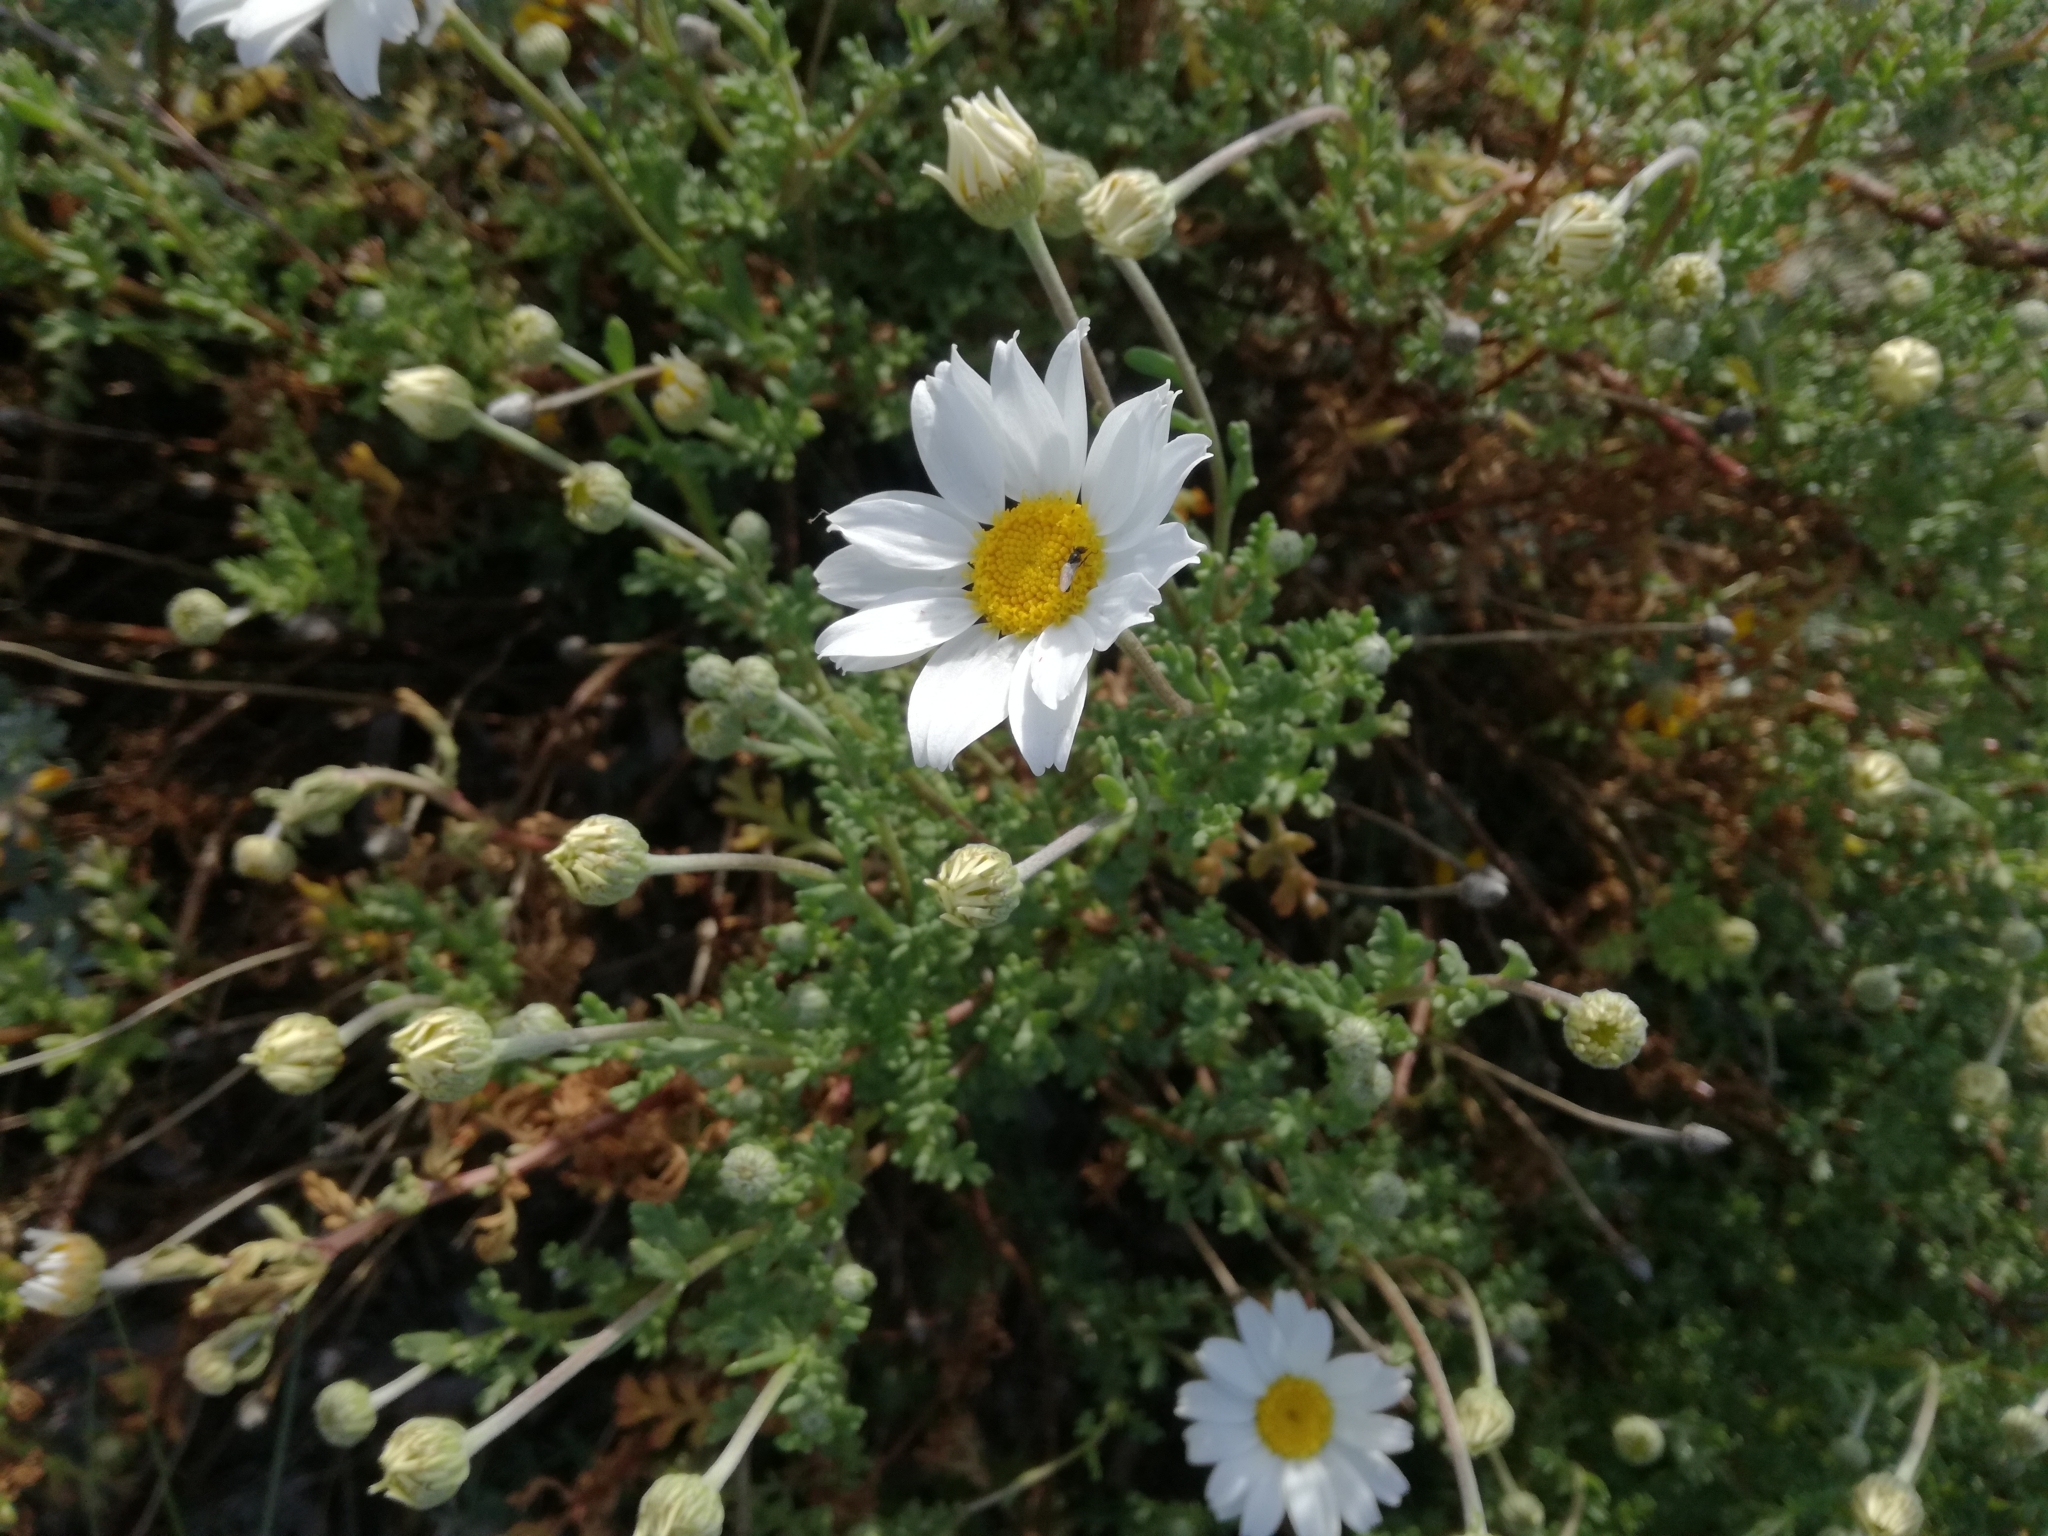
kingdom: Plantae
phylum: Tracheophyta
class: Magnoliopsida
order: Asterales
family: Asteraceae
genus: Anthemis
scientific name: Anthemis maritima
